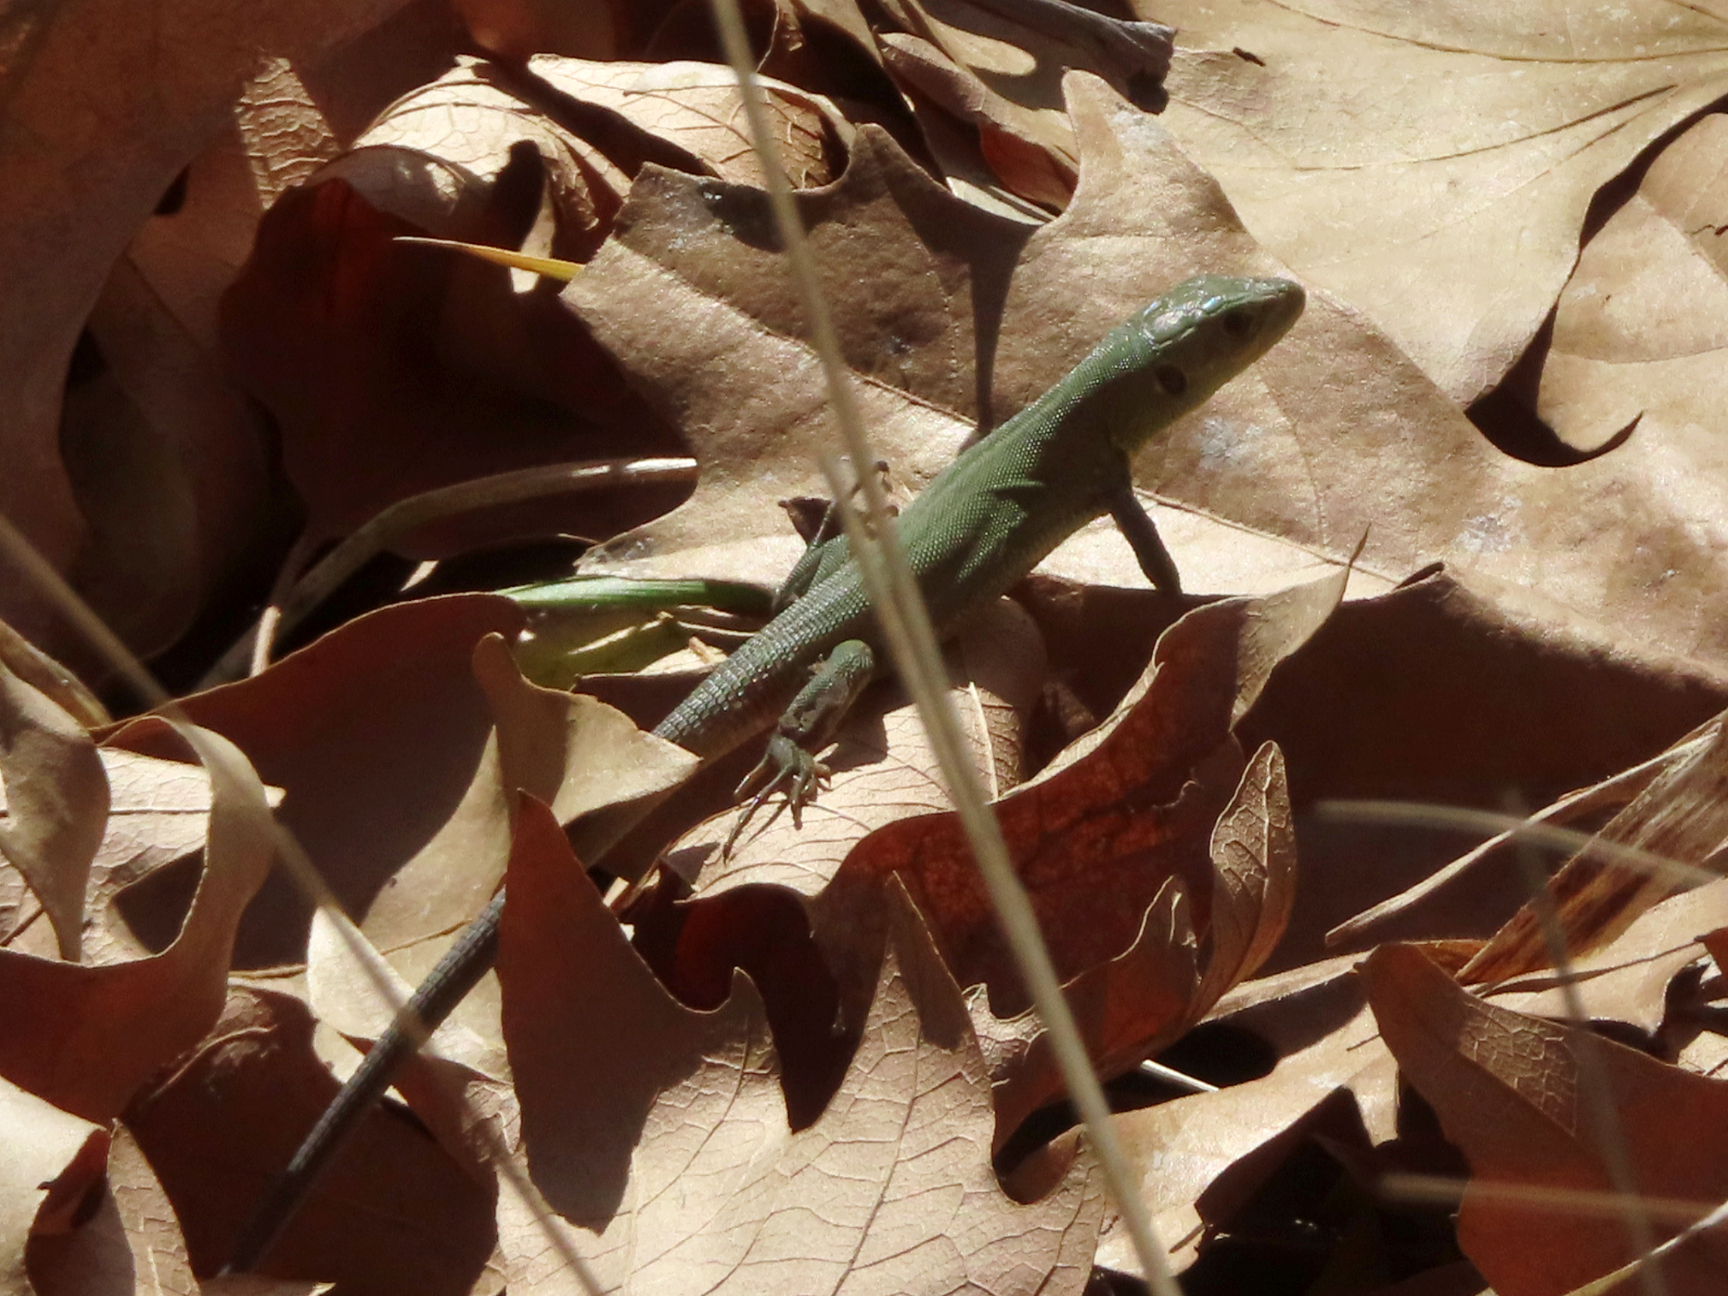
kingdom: Animalia
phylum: Chordata
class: Squamata
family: Lacertidae
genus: Lacerta
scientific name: Lacerta trilineata
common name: Balkan green lizard
